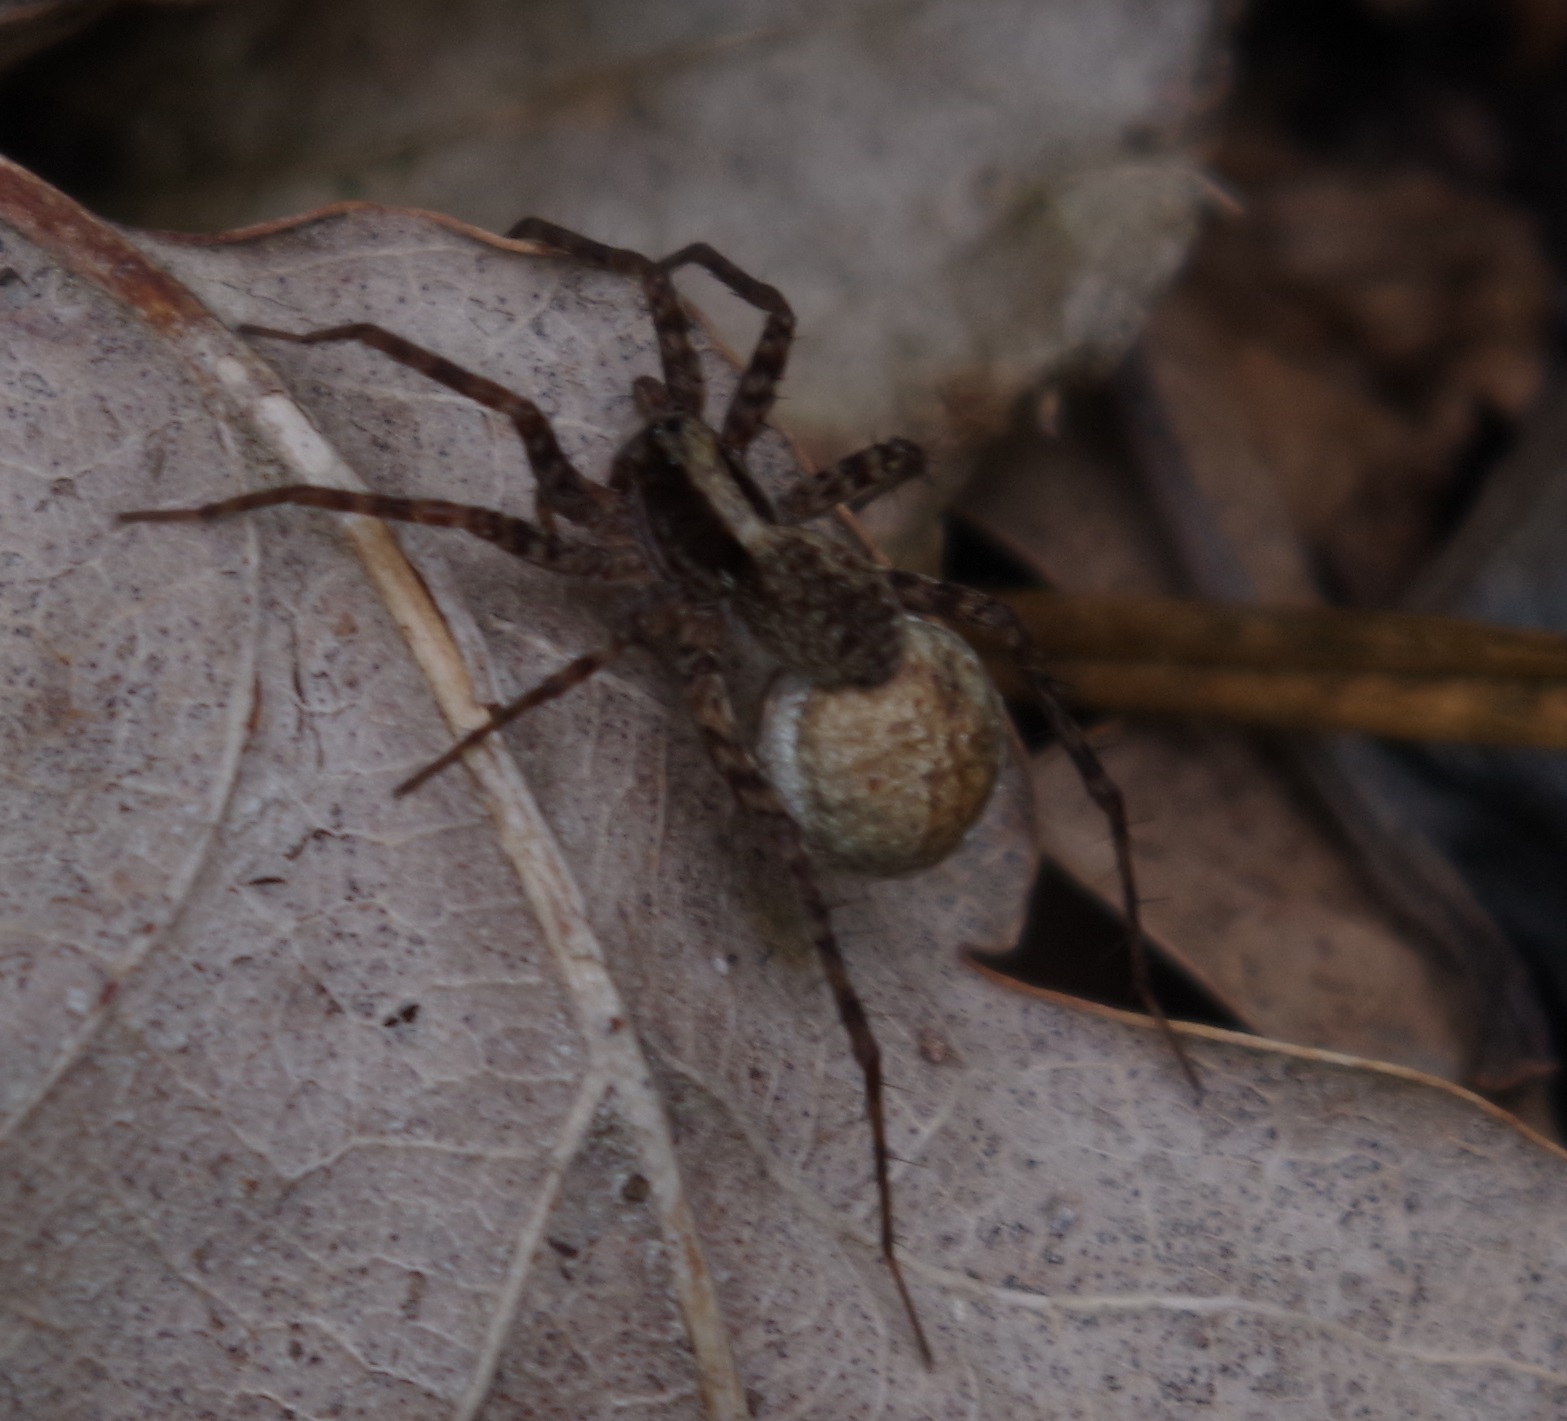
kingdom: Animalia
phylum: Arthropoda
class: Arachnida
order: Araneae
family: Lycosidae
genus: Pardosa
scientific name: Pardosa
